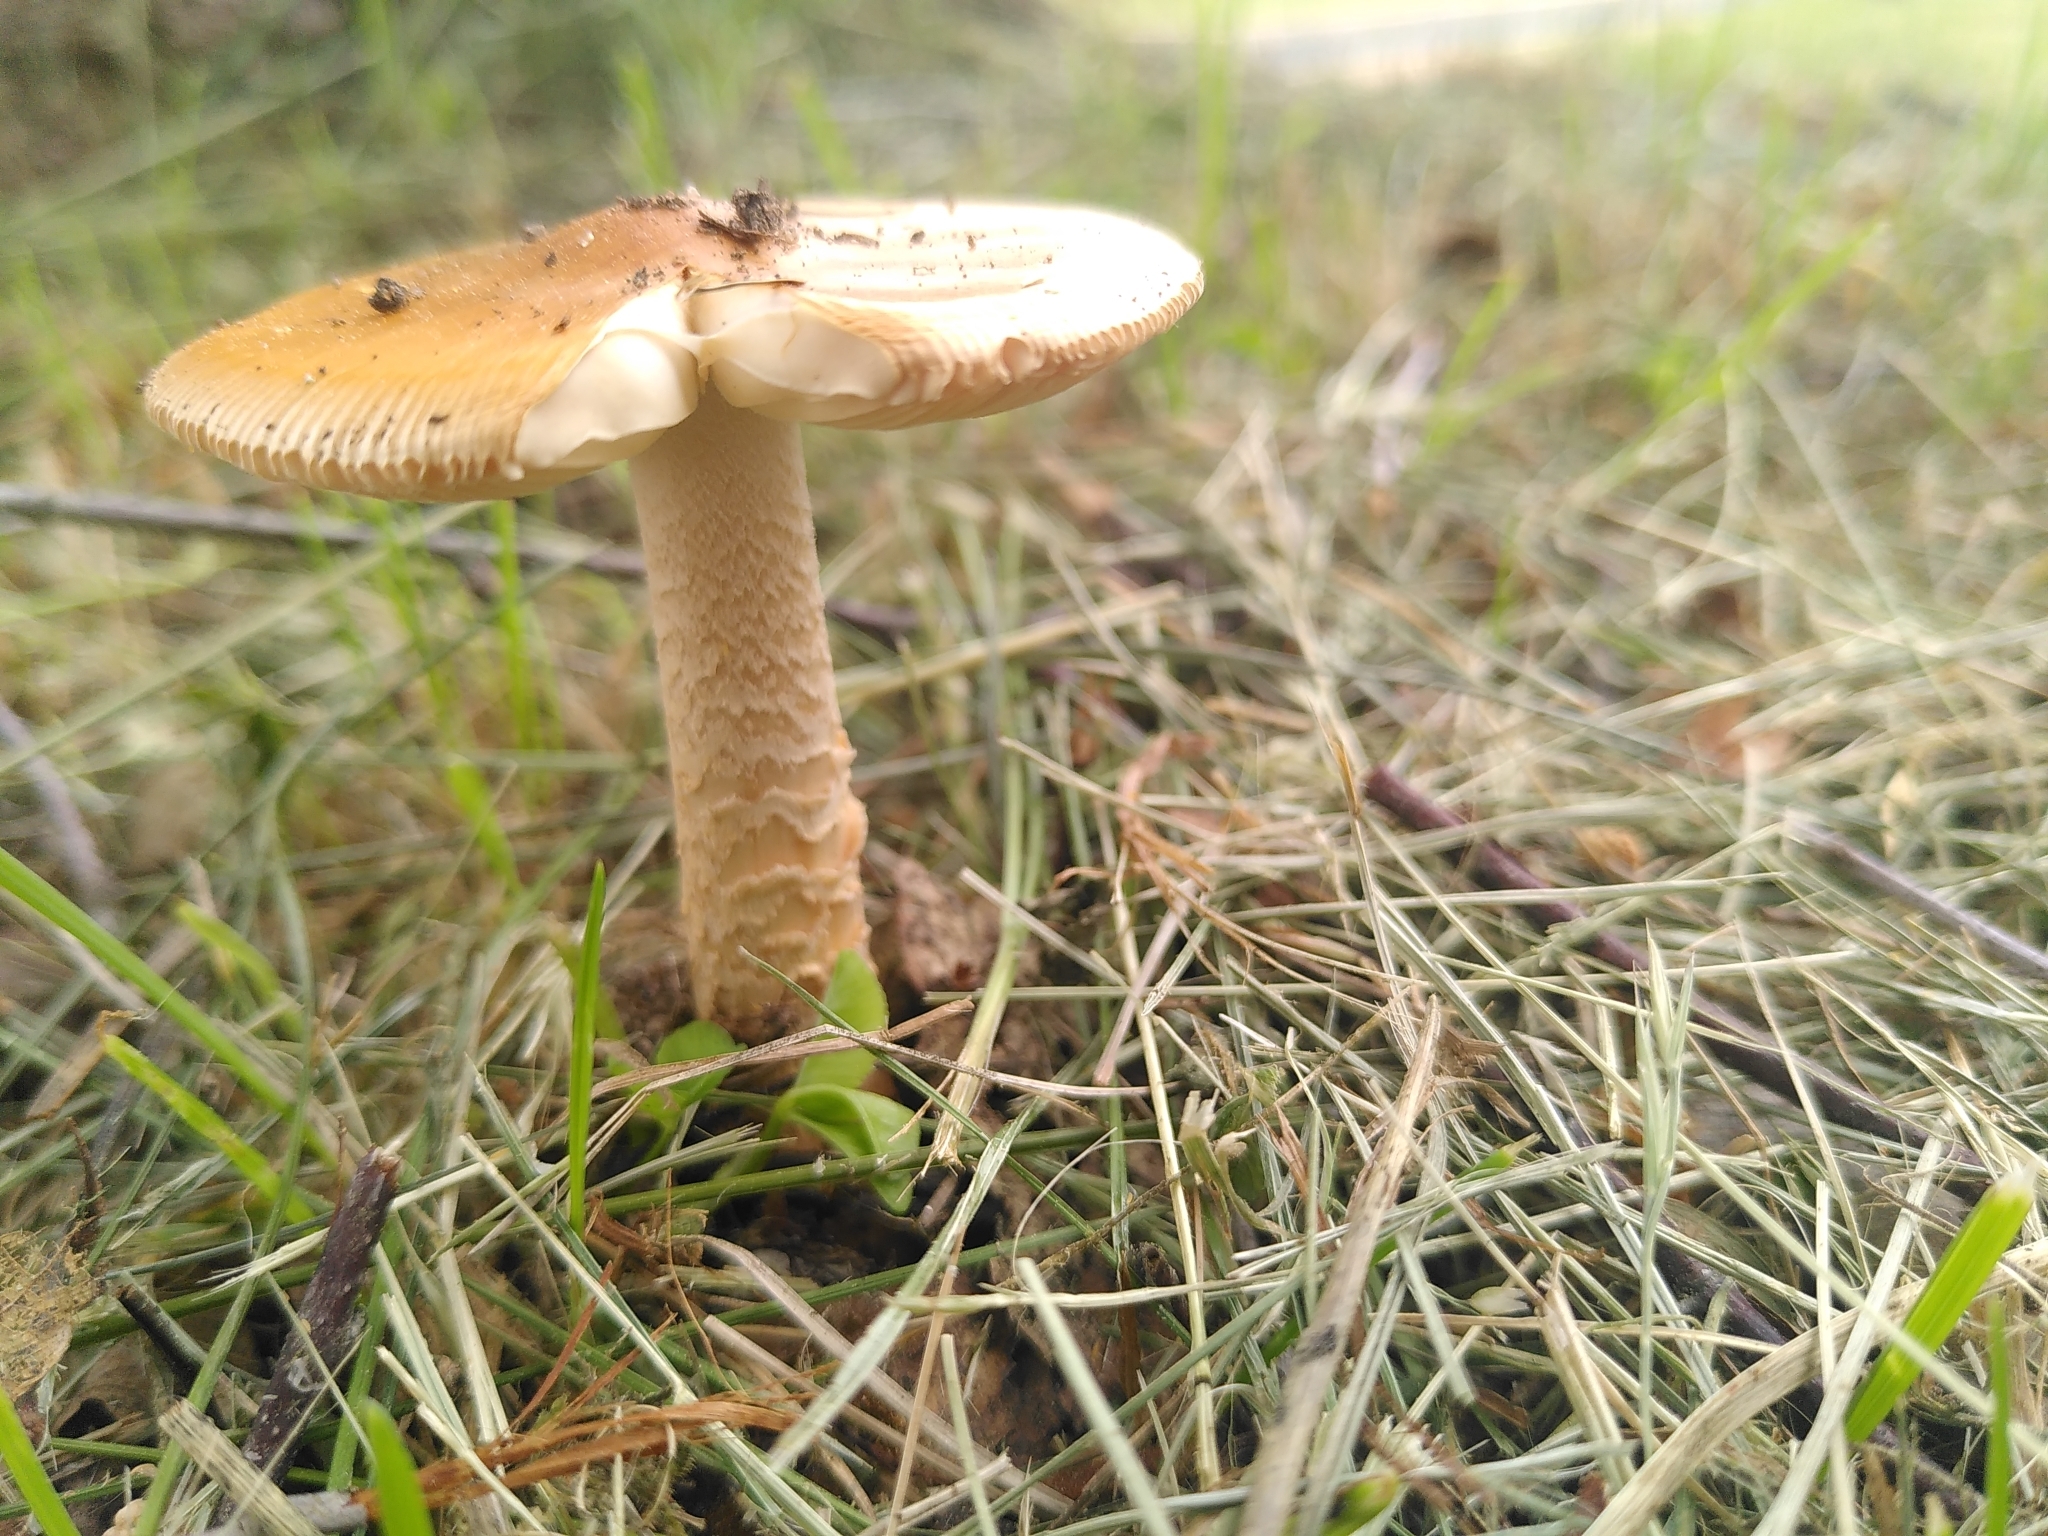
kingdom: Fungi
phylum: Basidiomycota
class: Agaricomycetes
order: Agaricales
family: Amanitaceae
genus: Amanita
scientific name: Amanita crocea
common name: Orange grisette
